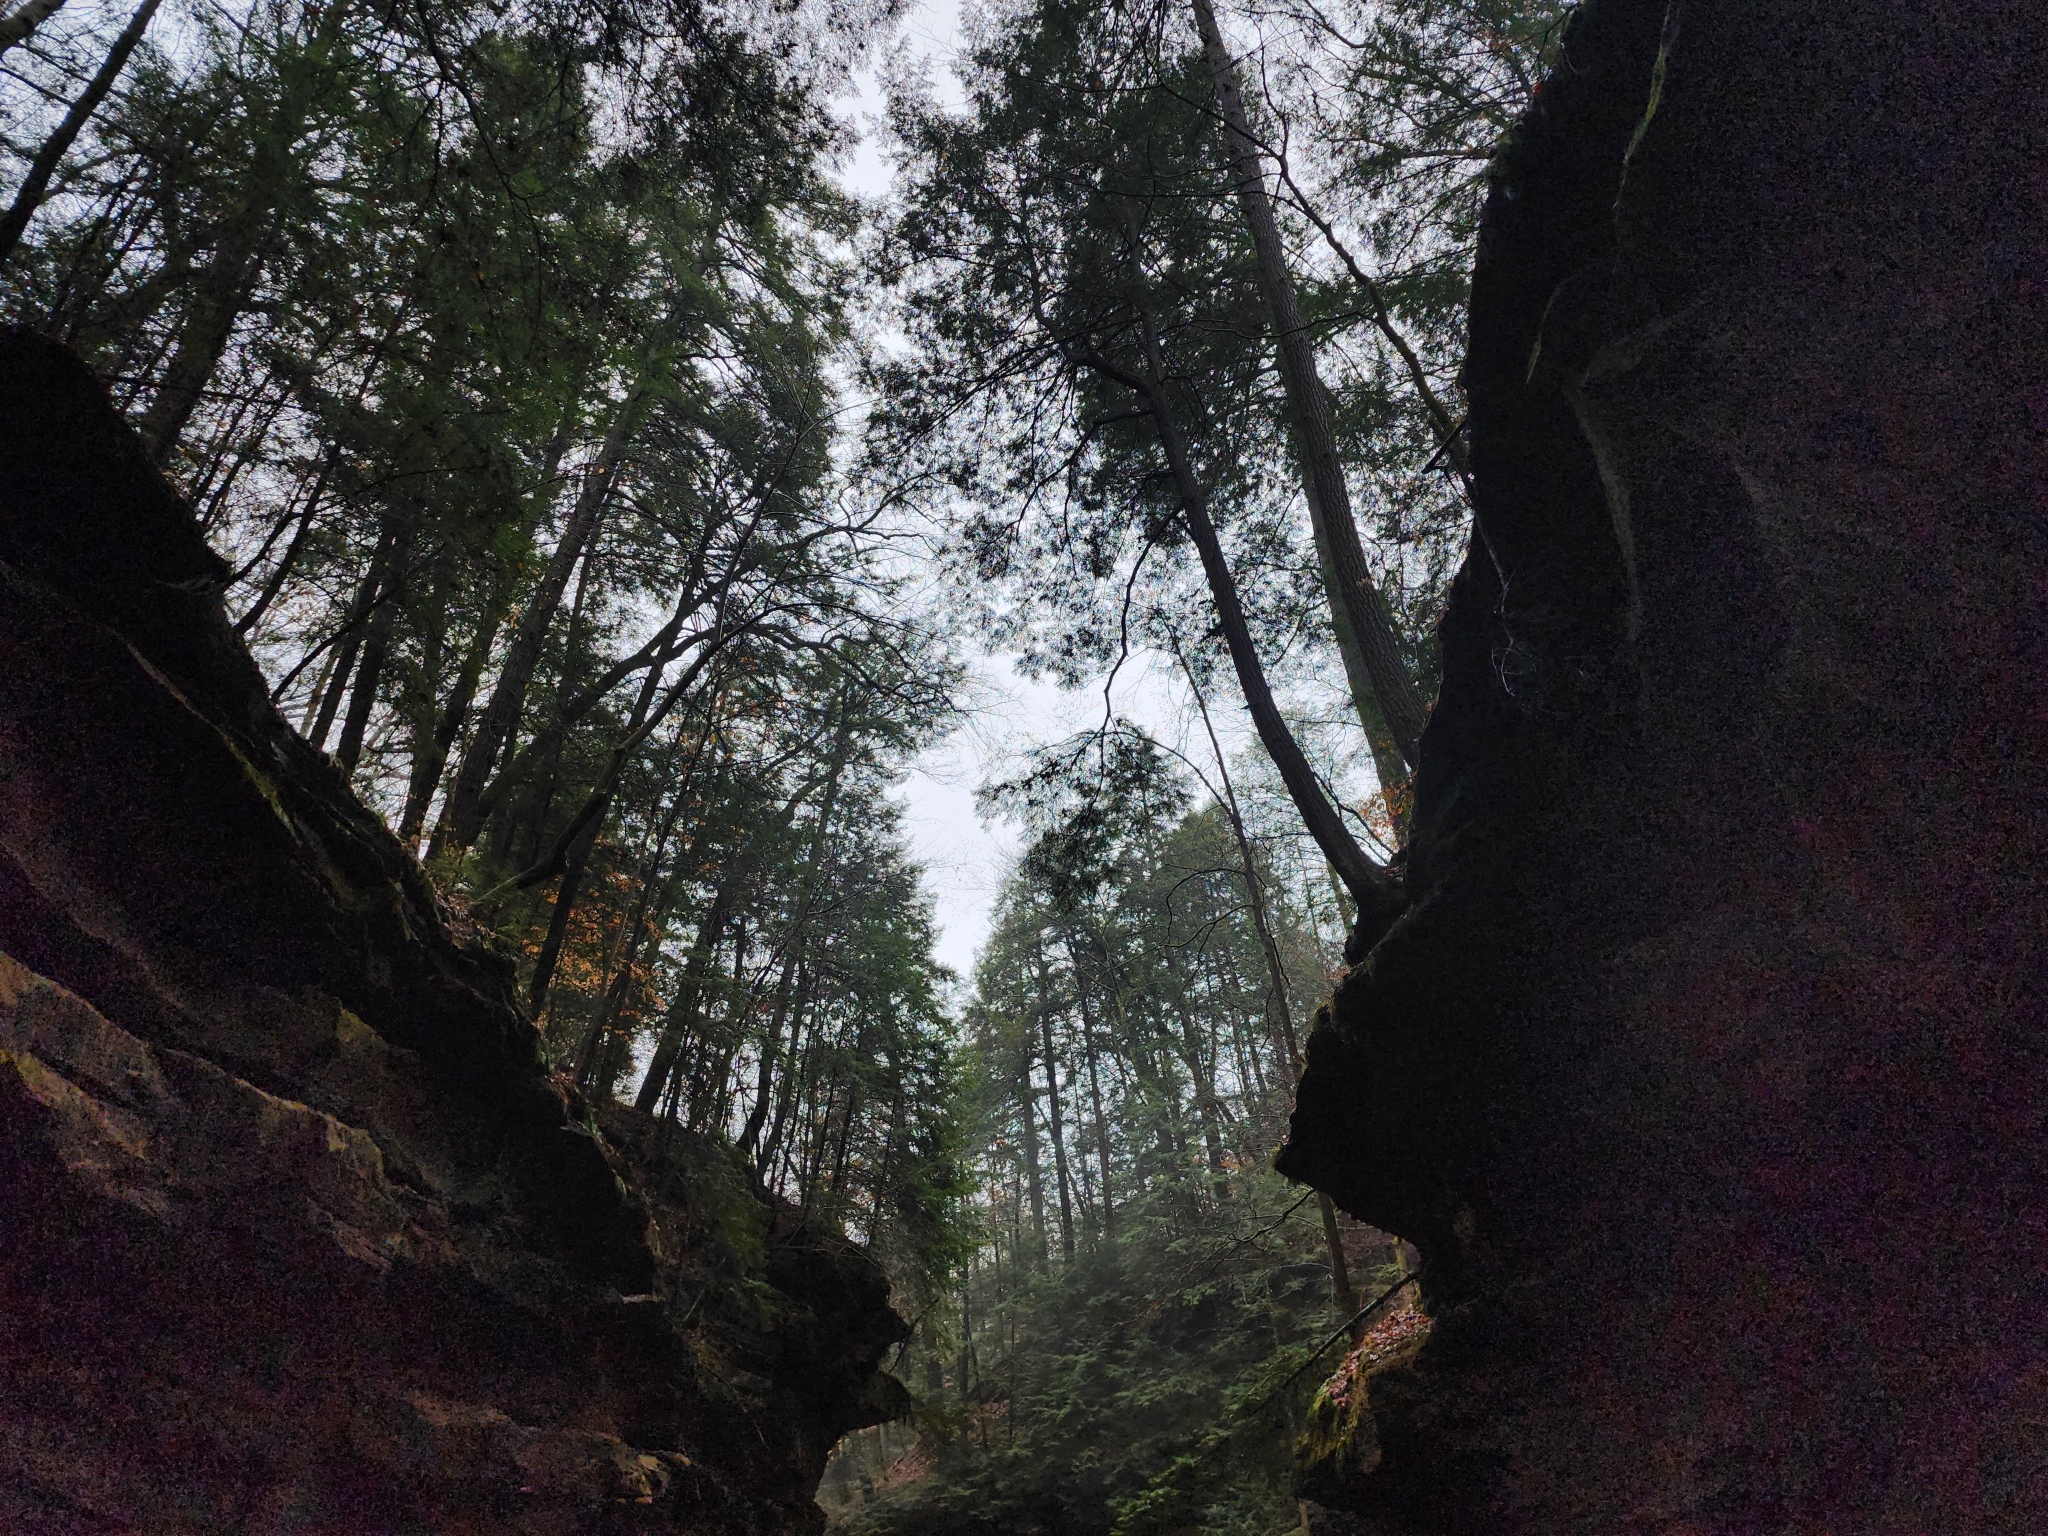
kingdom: Plantae
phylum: Tracheophyta
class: Pinopsida
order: Pinales
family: Pinaceae
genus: Tsuga
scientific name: Tsuga canadensis
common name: Eastern hemlock
